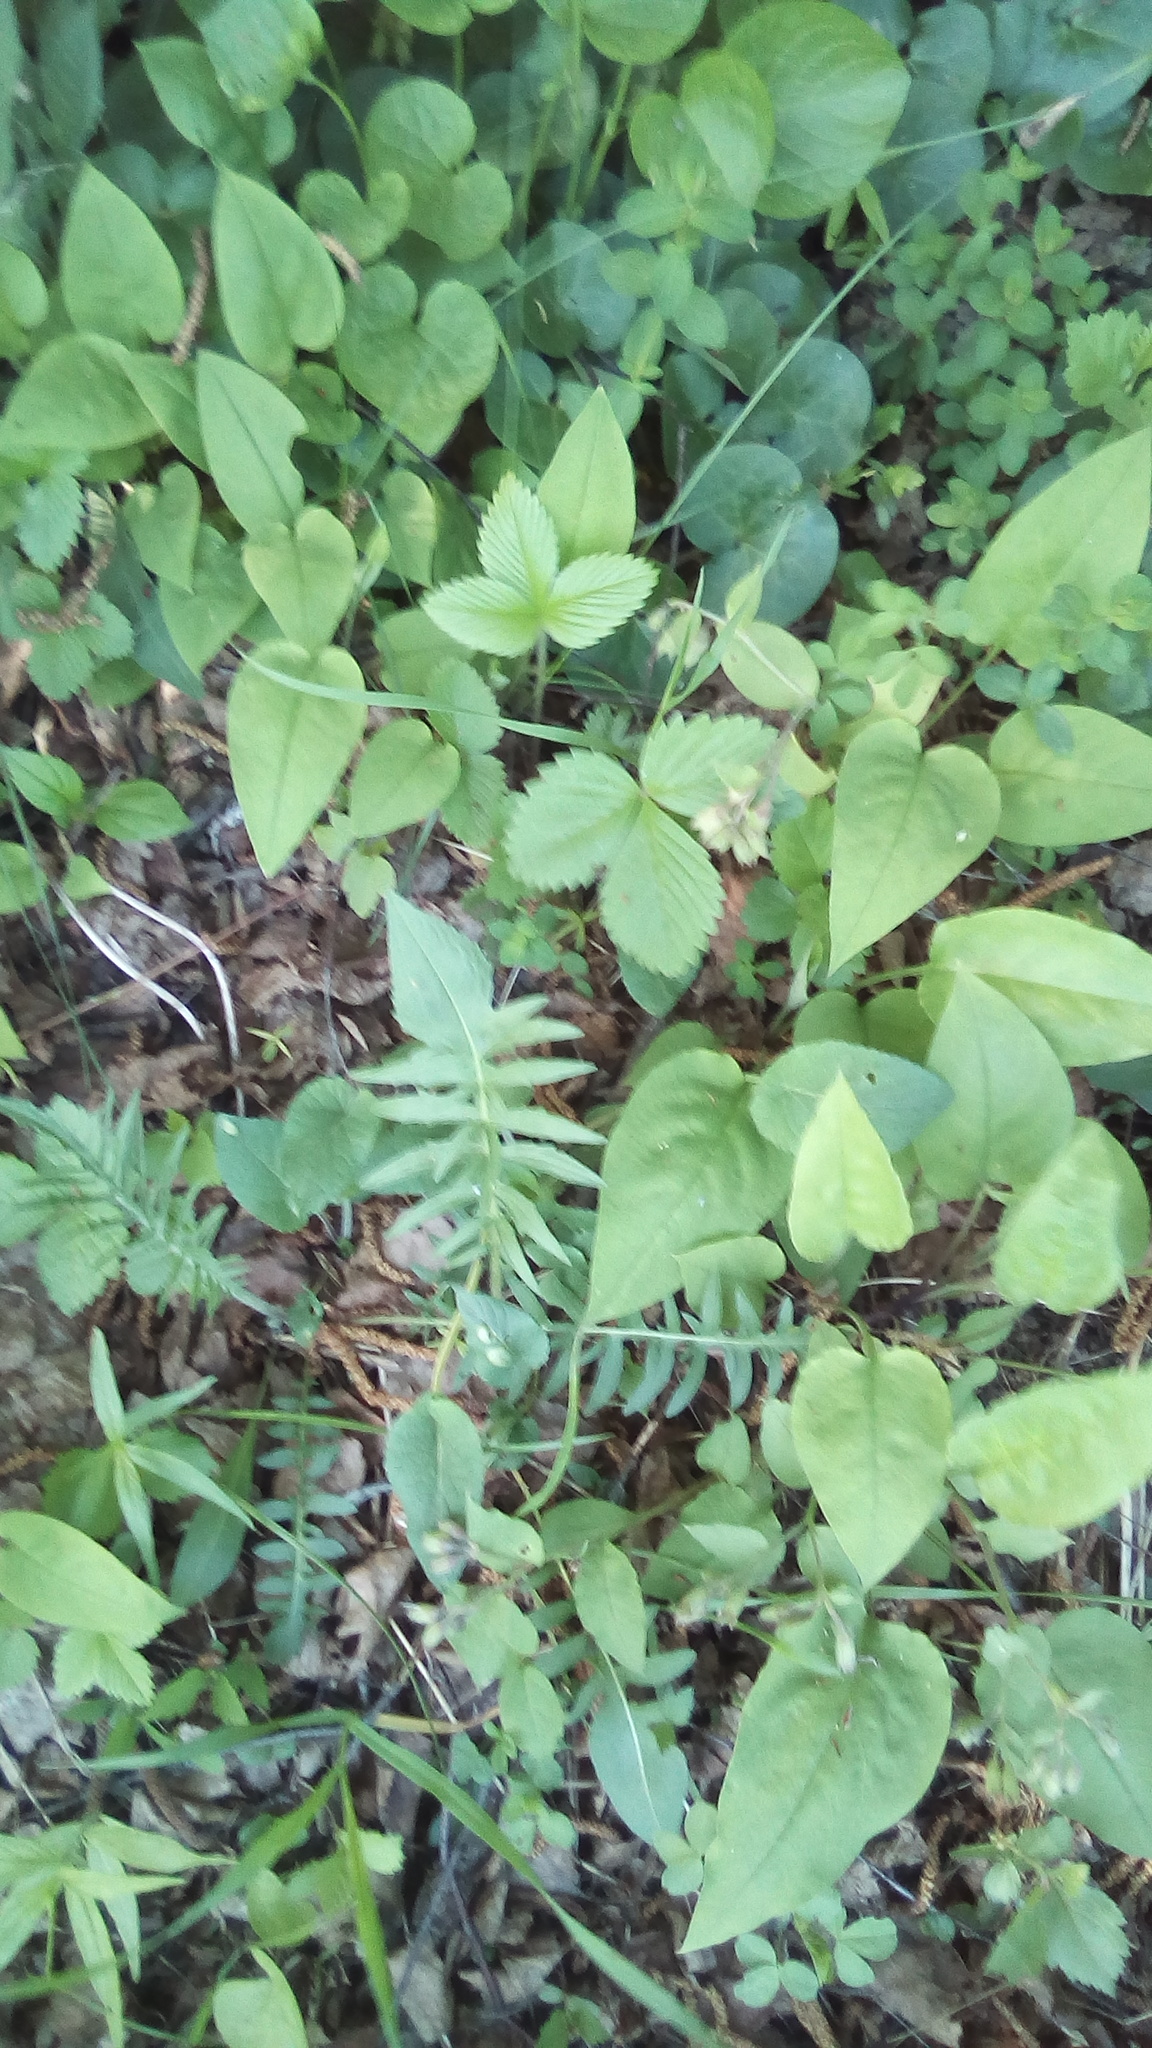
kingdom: Plantae
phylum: Tracheophyta
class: Magnoliopsida
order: Boraginales
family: Boraginaceae
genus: Pulmonaria
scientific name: Pulmonaria obscura
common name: Suffolk lungwort
